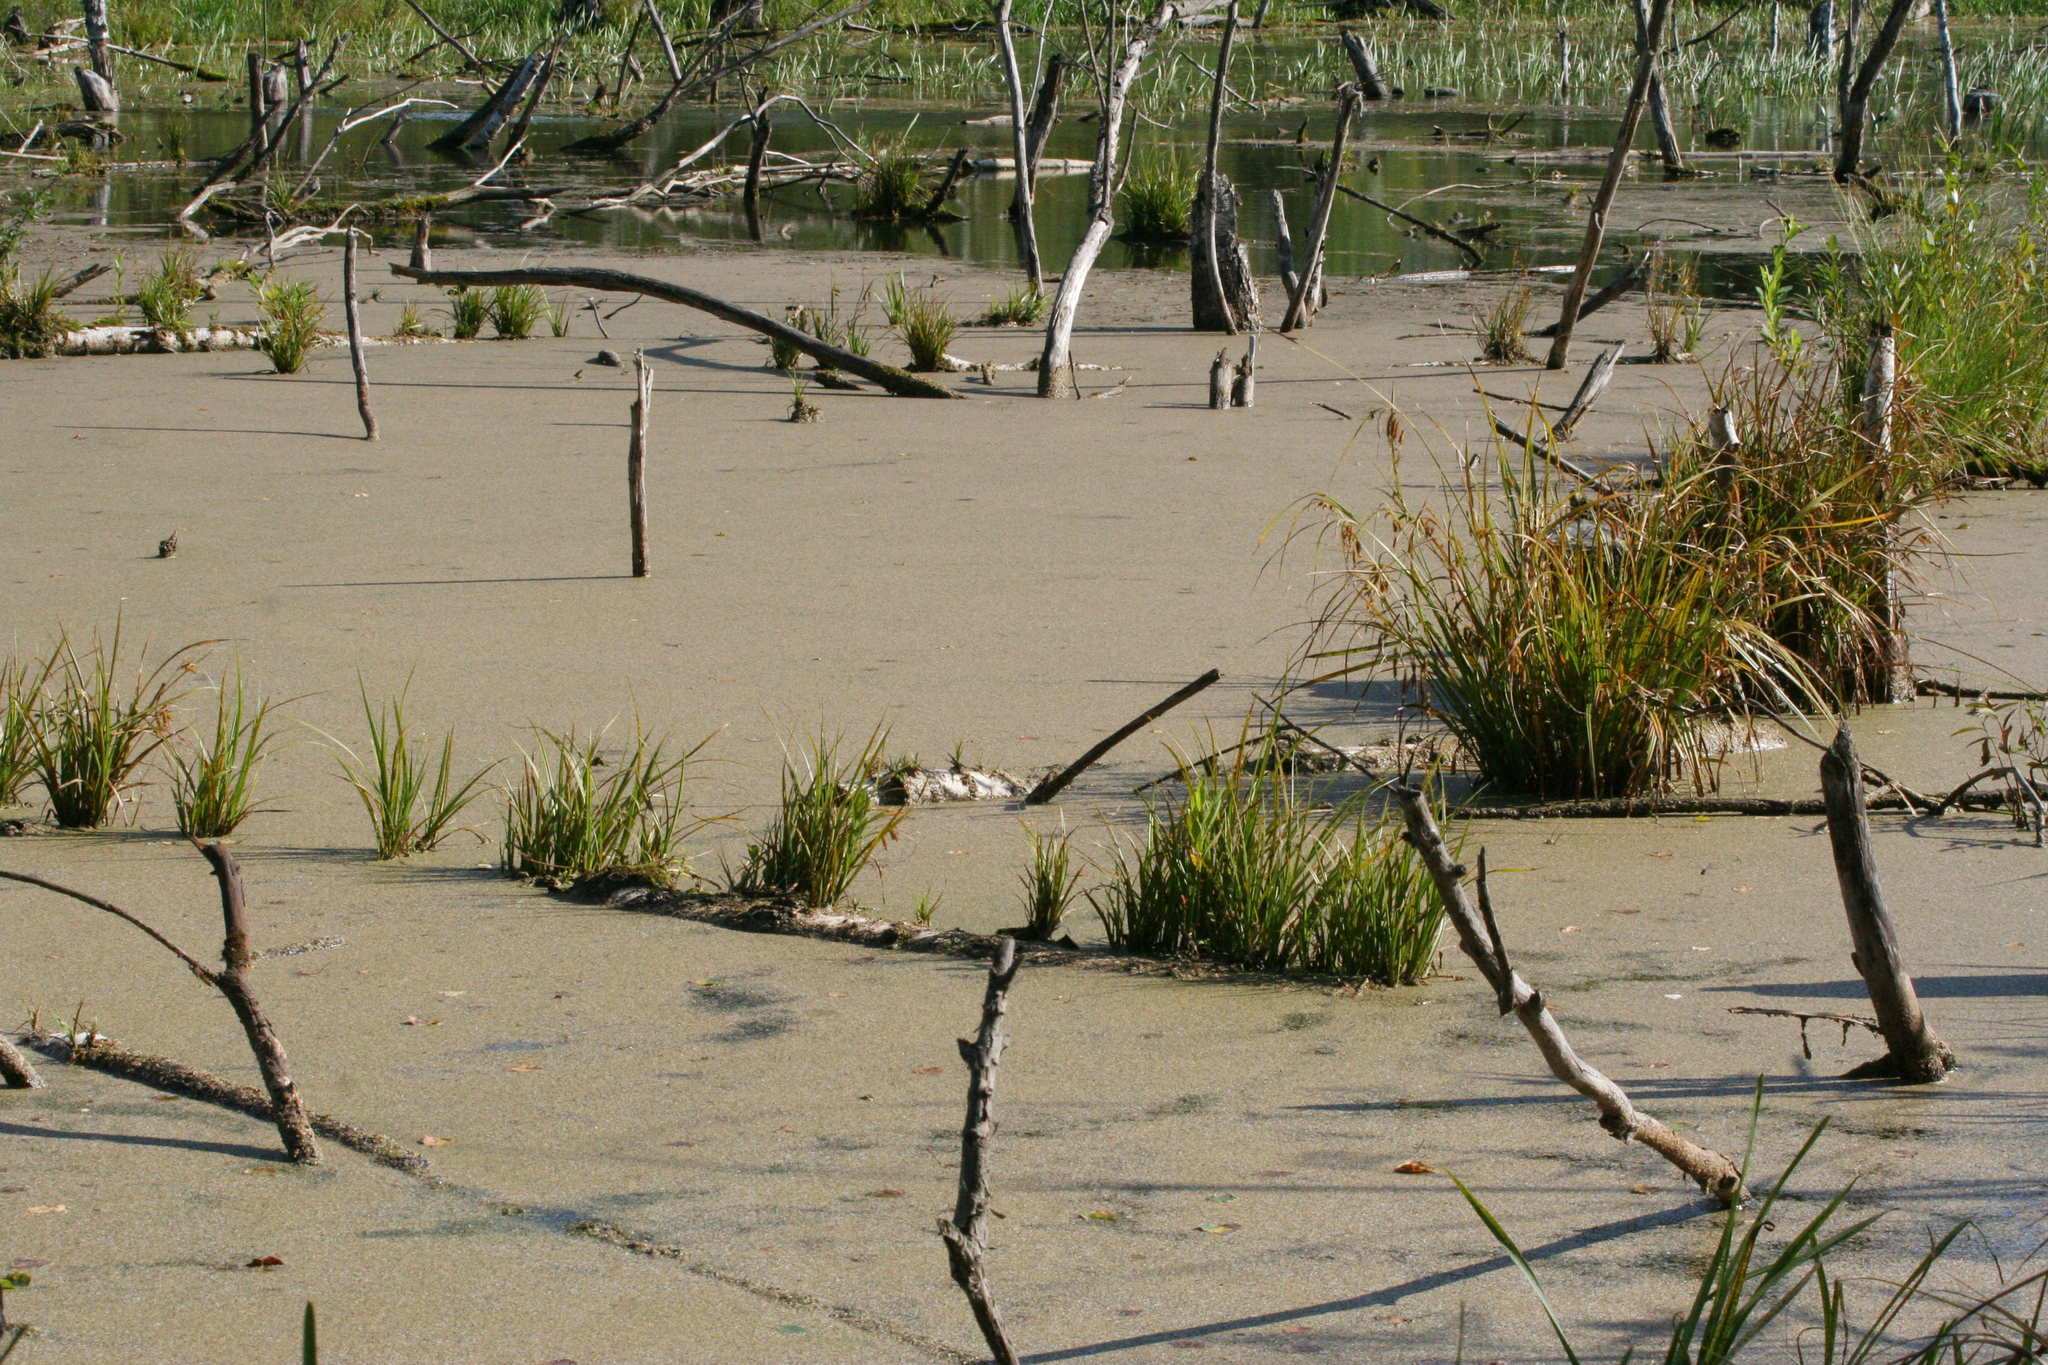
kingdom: Plantae
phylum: Tracheophyta
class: Liliopsida
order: Poales
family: Cyperaceae
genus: Carex
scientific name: Carex pseudocyperus
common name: Cyperus sedge
